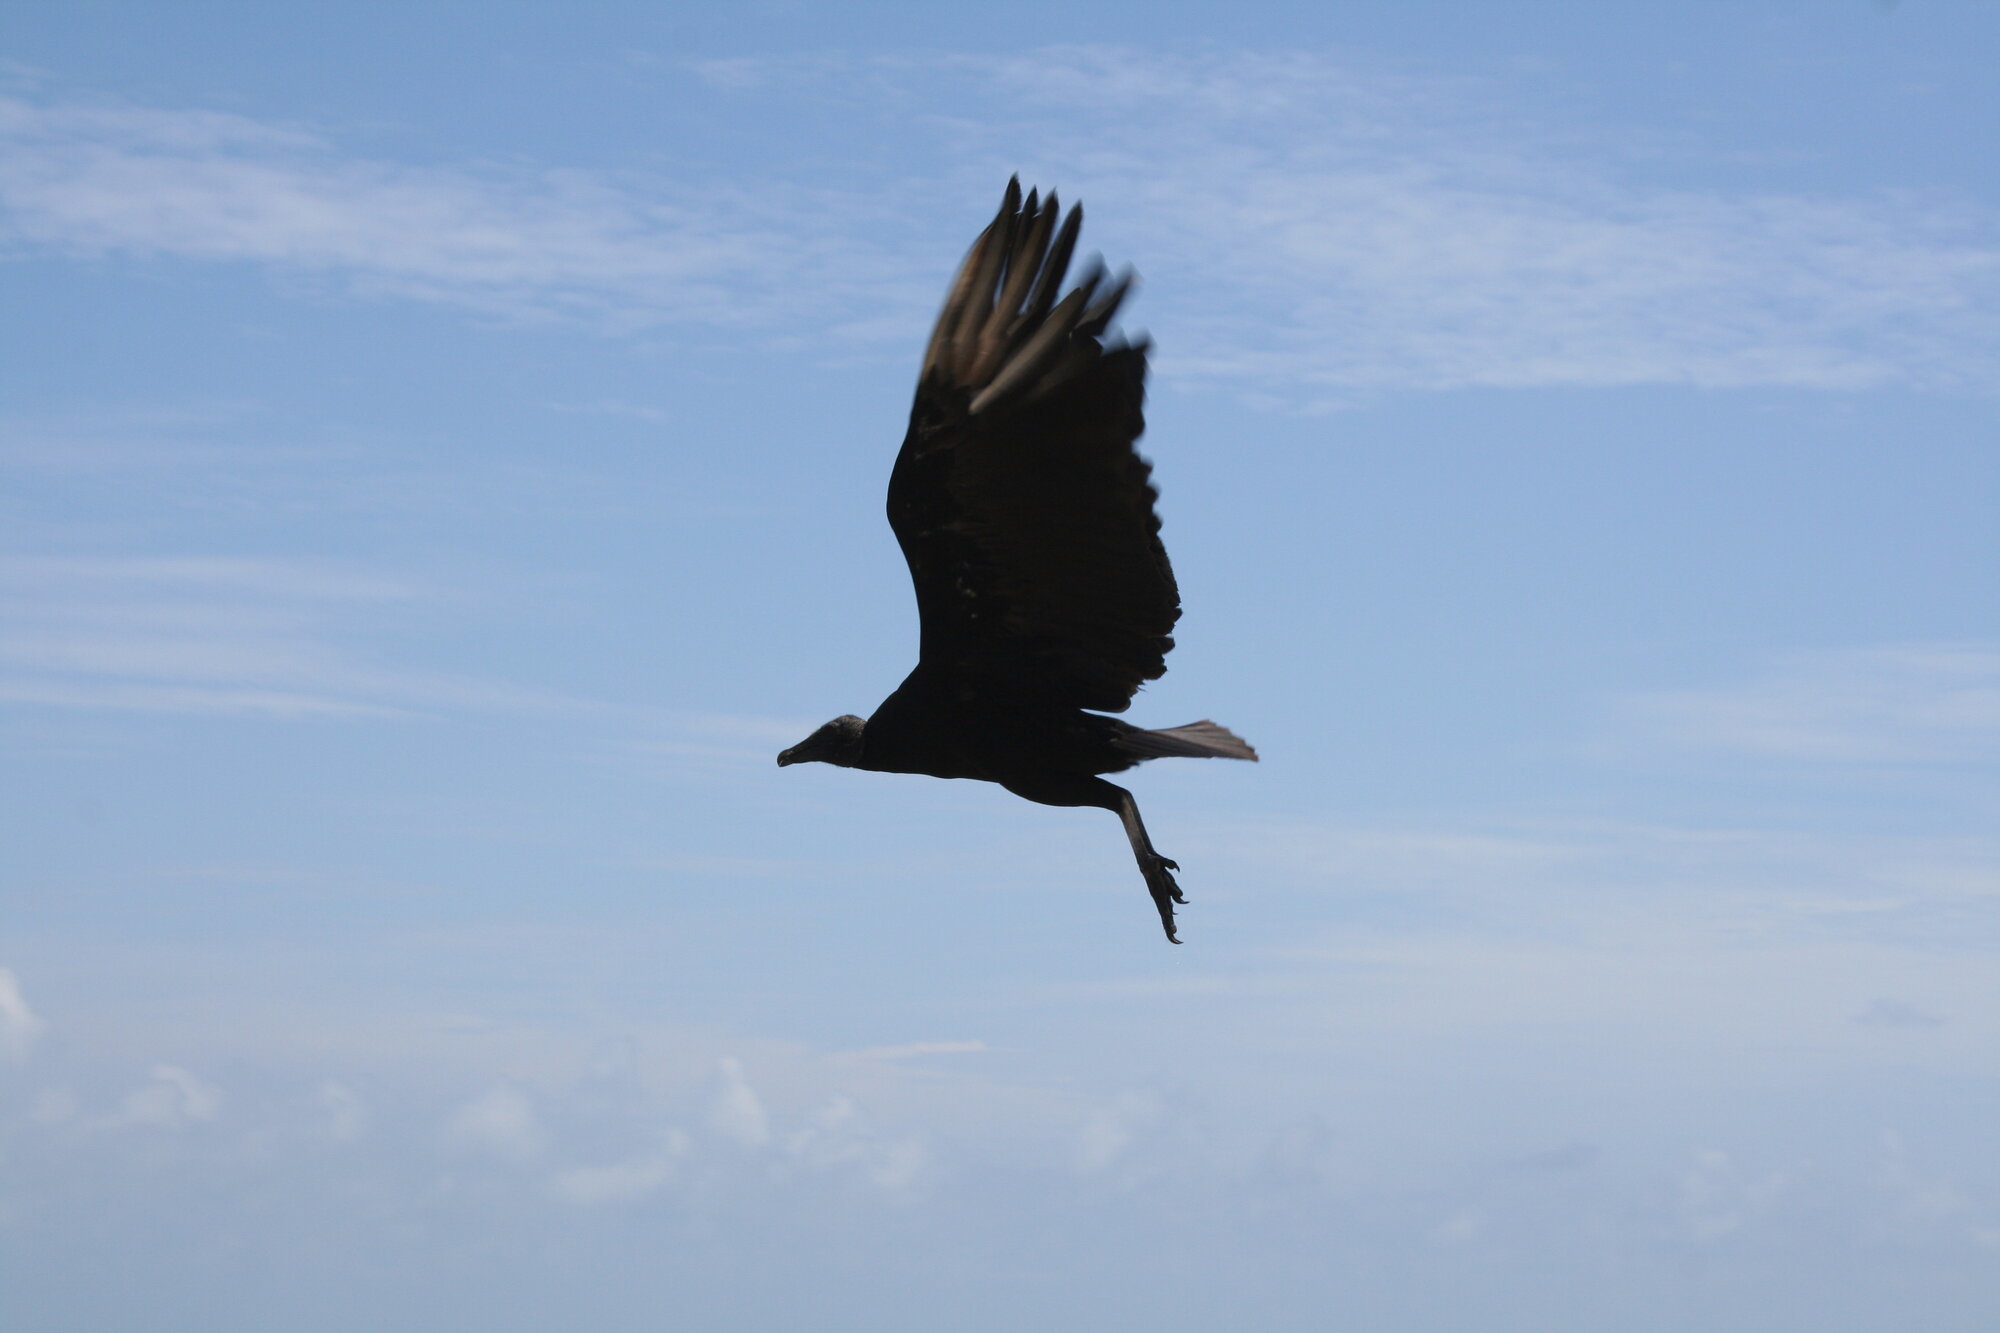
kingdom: Animalia
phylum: Chordata
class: Aves
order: Accipitriformes
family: Cathartidae
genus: Coragyps
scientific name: Coragyps atratus
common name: Black vulture
